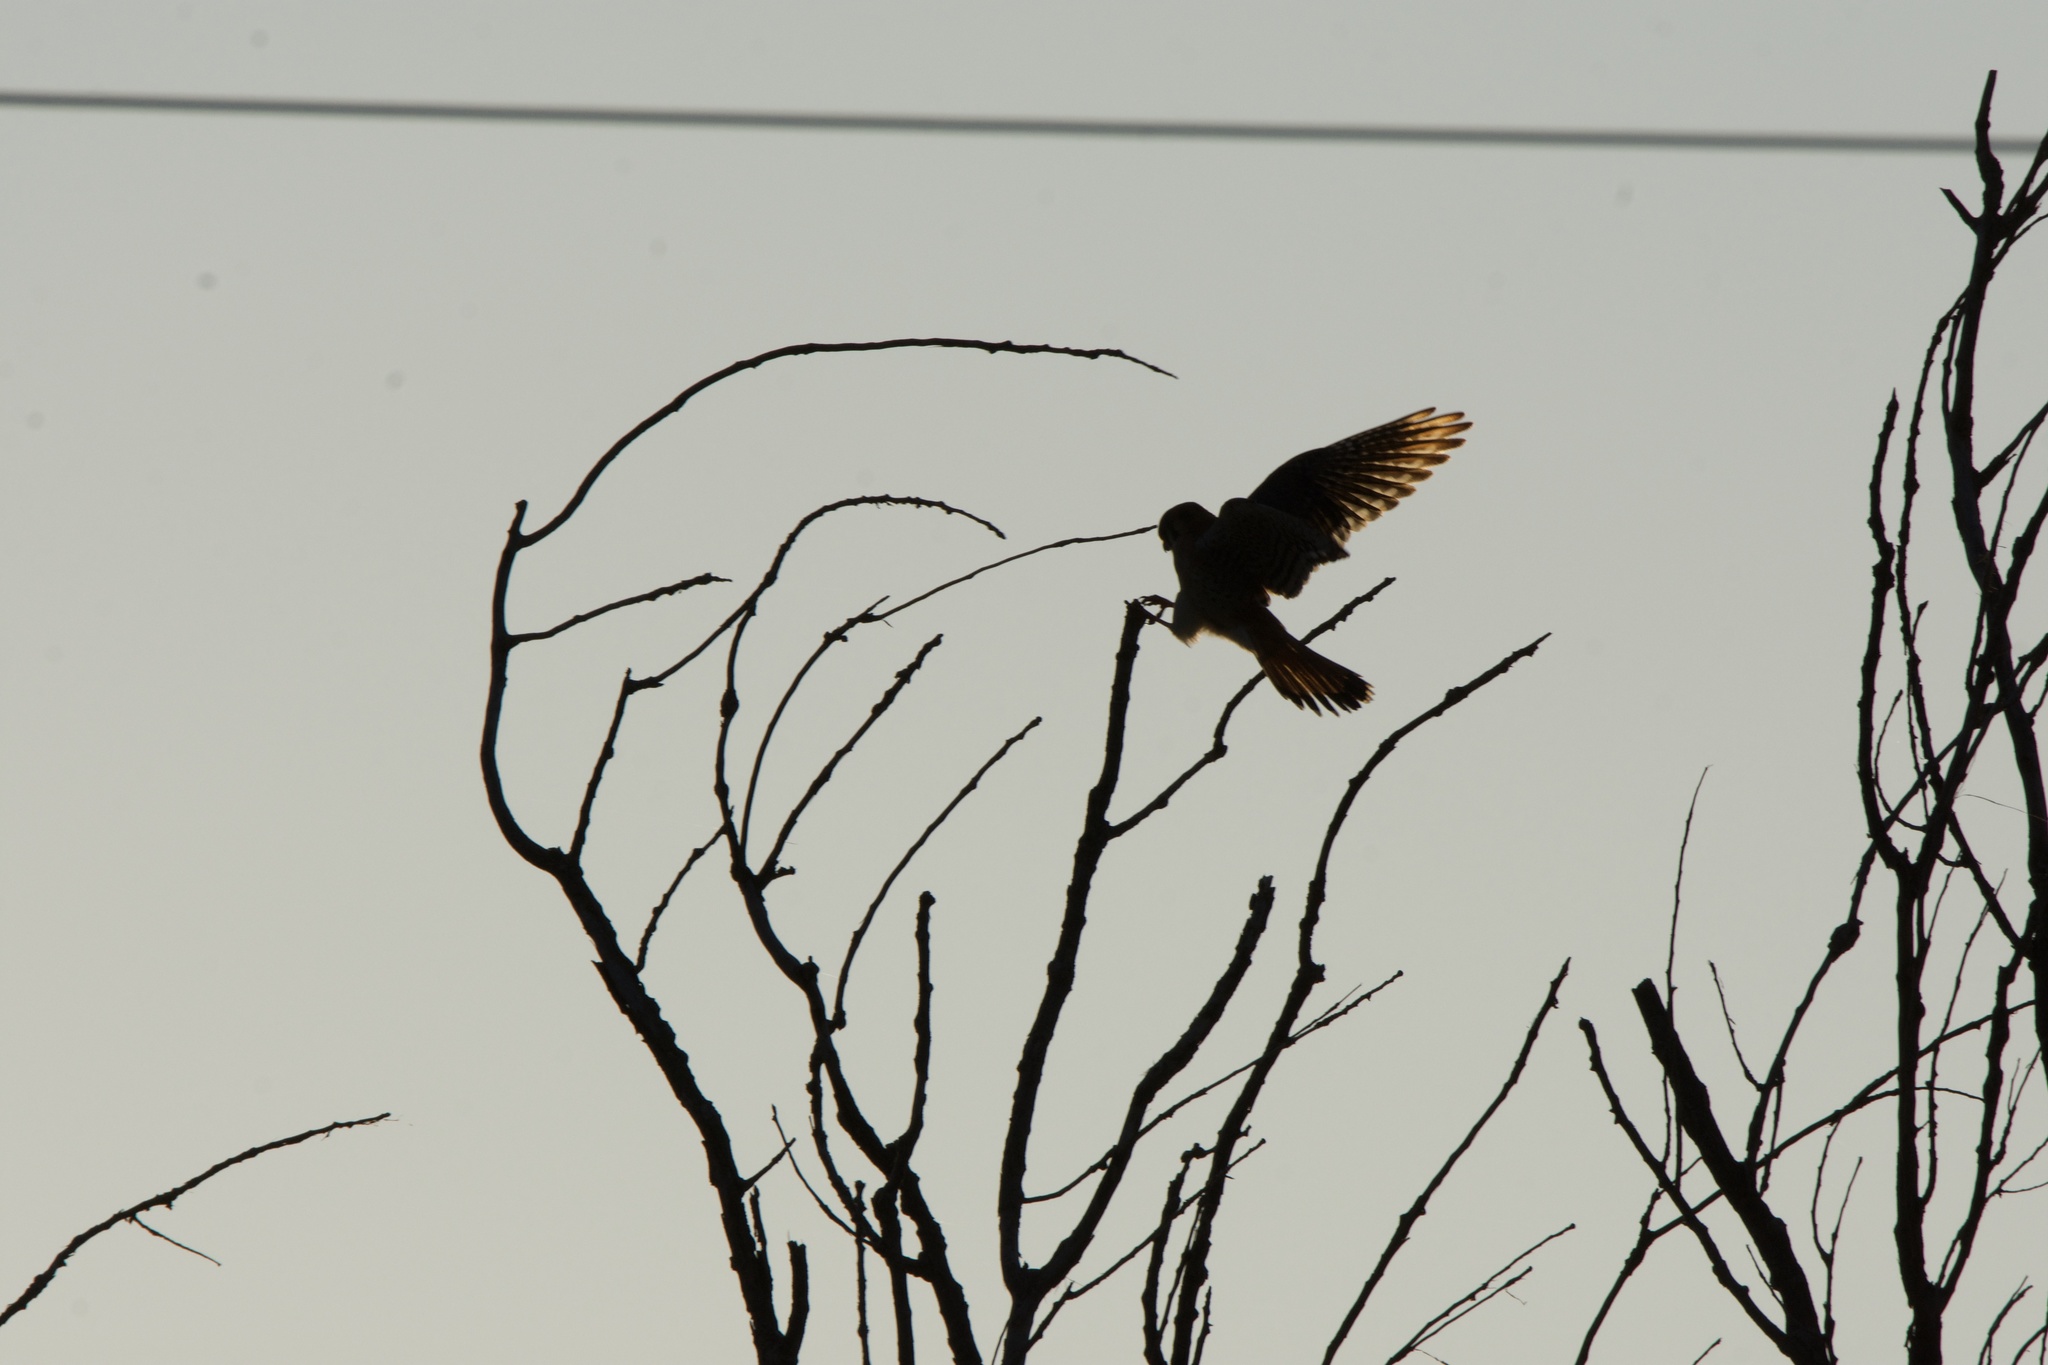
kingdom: Animalia
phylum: Chordata
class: Aves
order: Falconiformes
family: Falconidae
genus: Falco
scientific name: Falco sparverius
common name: American kestrel
